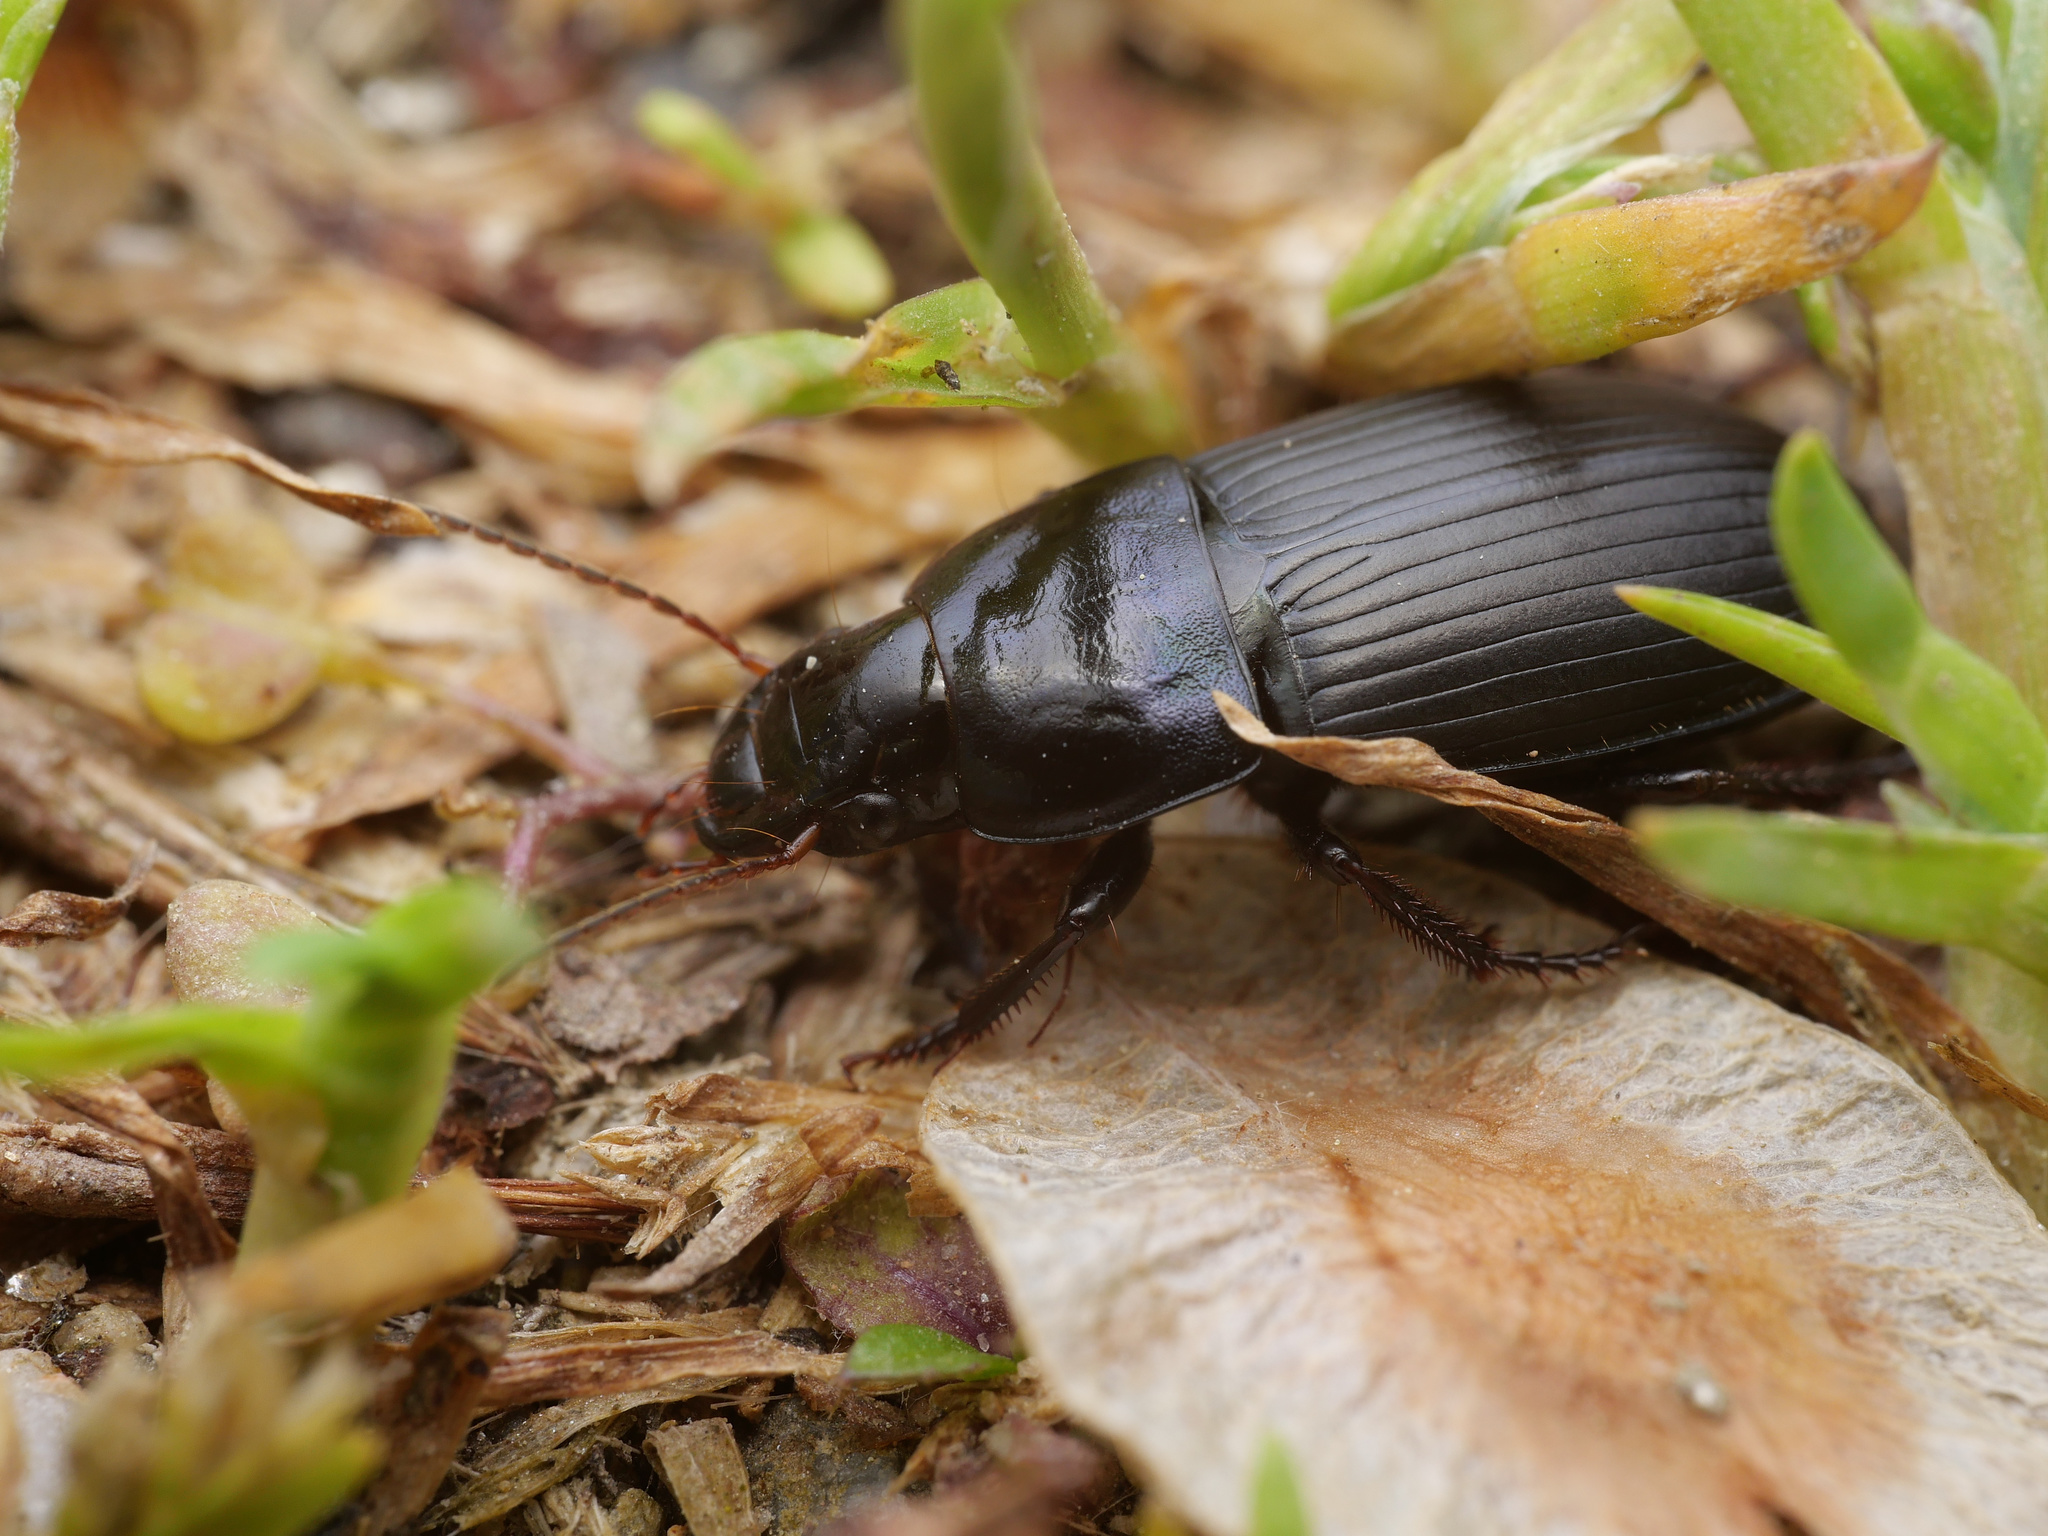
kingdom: Animalia
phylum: Arthropoda
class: Insecta
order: Coleoptera
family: Carabidae
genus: Harpalus
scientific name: Harpalus dimidiatus
